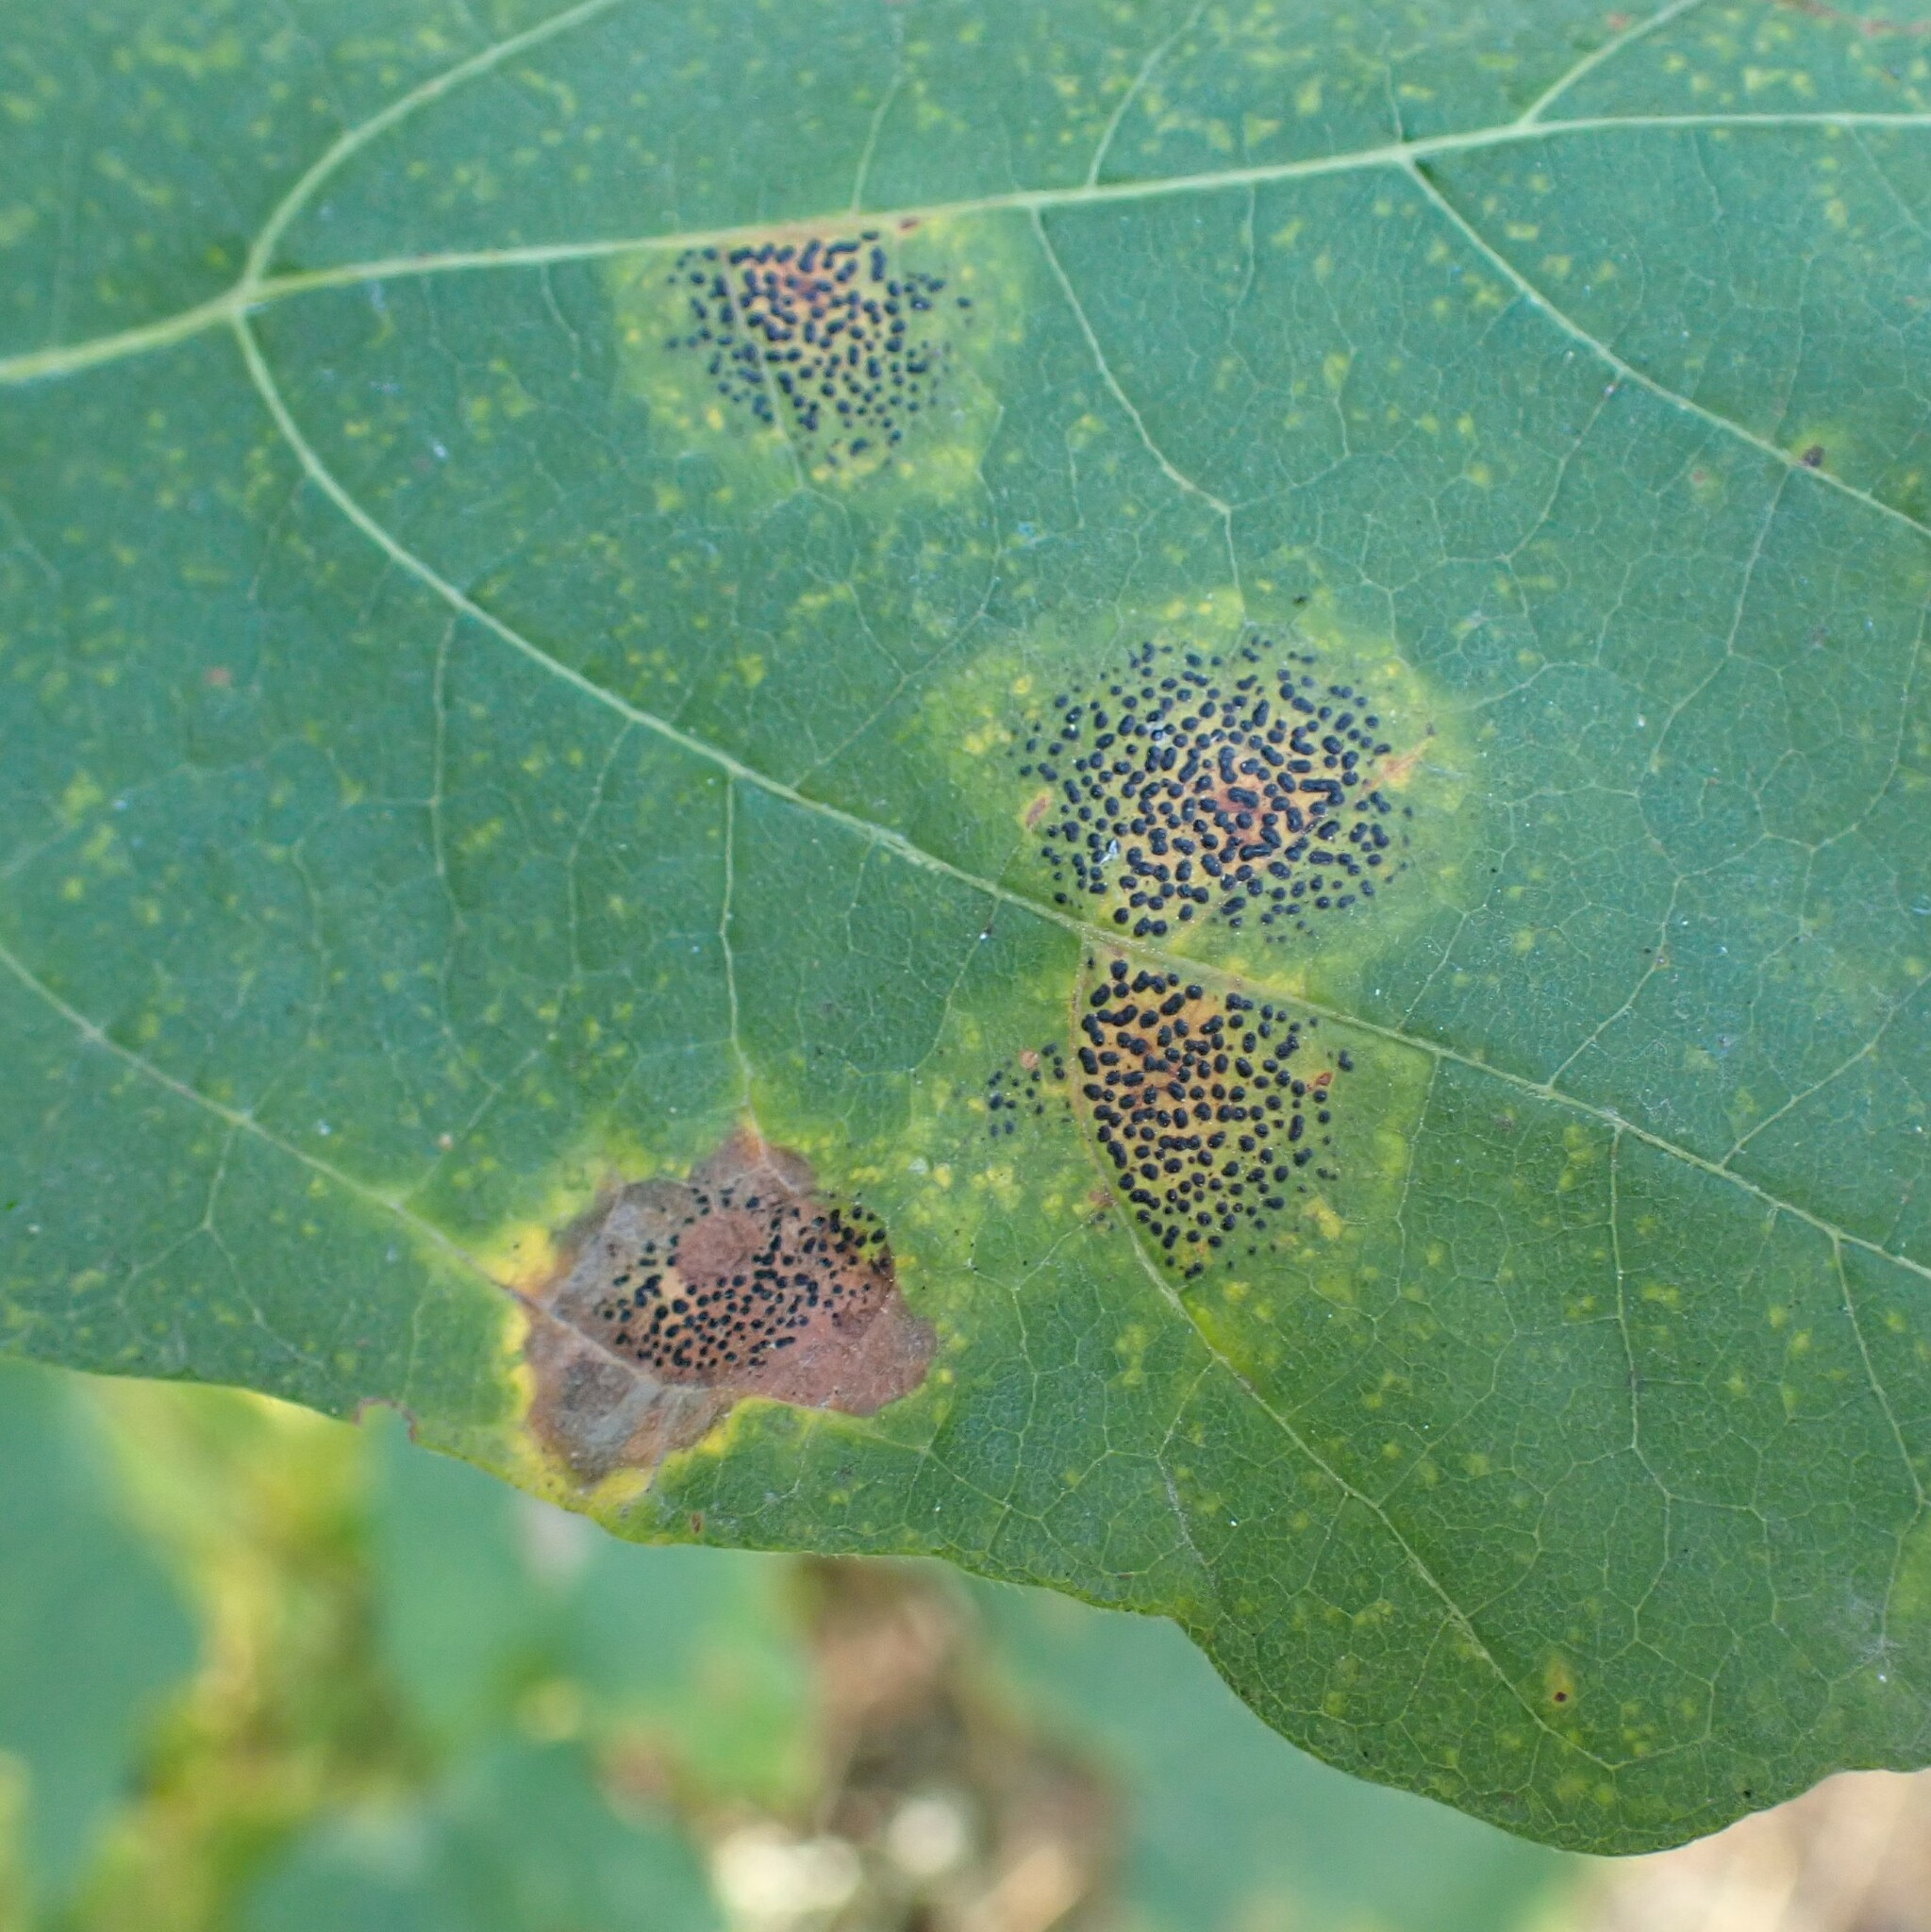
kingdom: Fungi
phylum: Ascomycota
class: Leotiomycetes
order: Rhytismatales
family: Rhytismataceae
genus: Rhytisma
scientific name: Rhytisma punctatum
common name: Speckled tar spot
